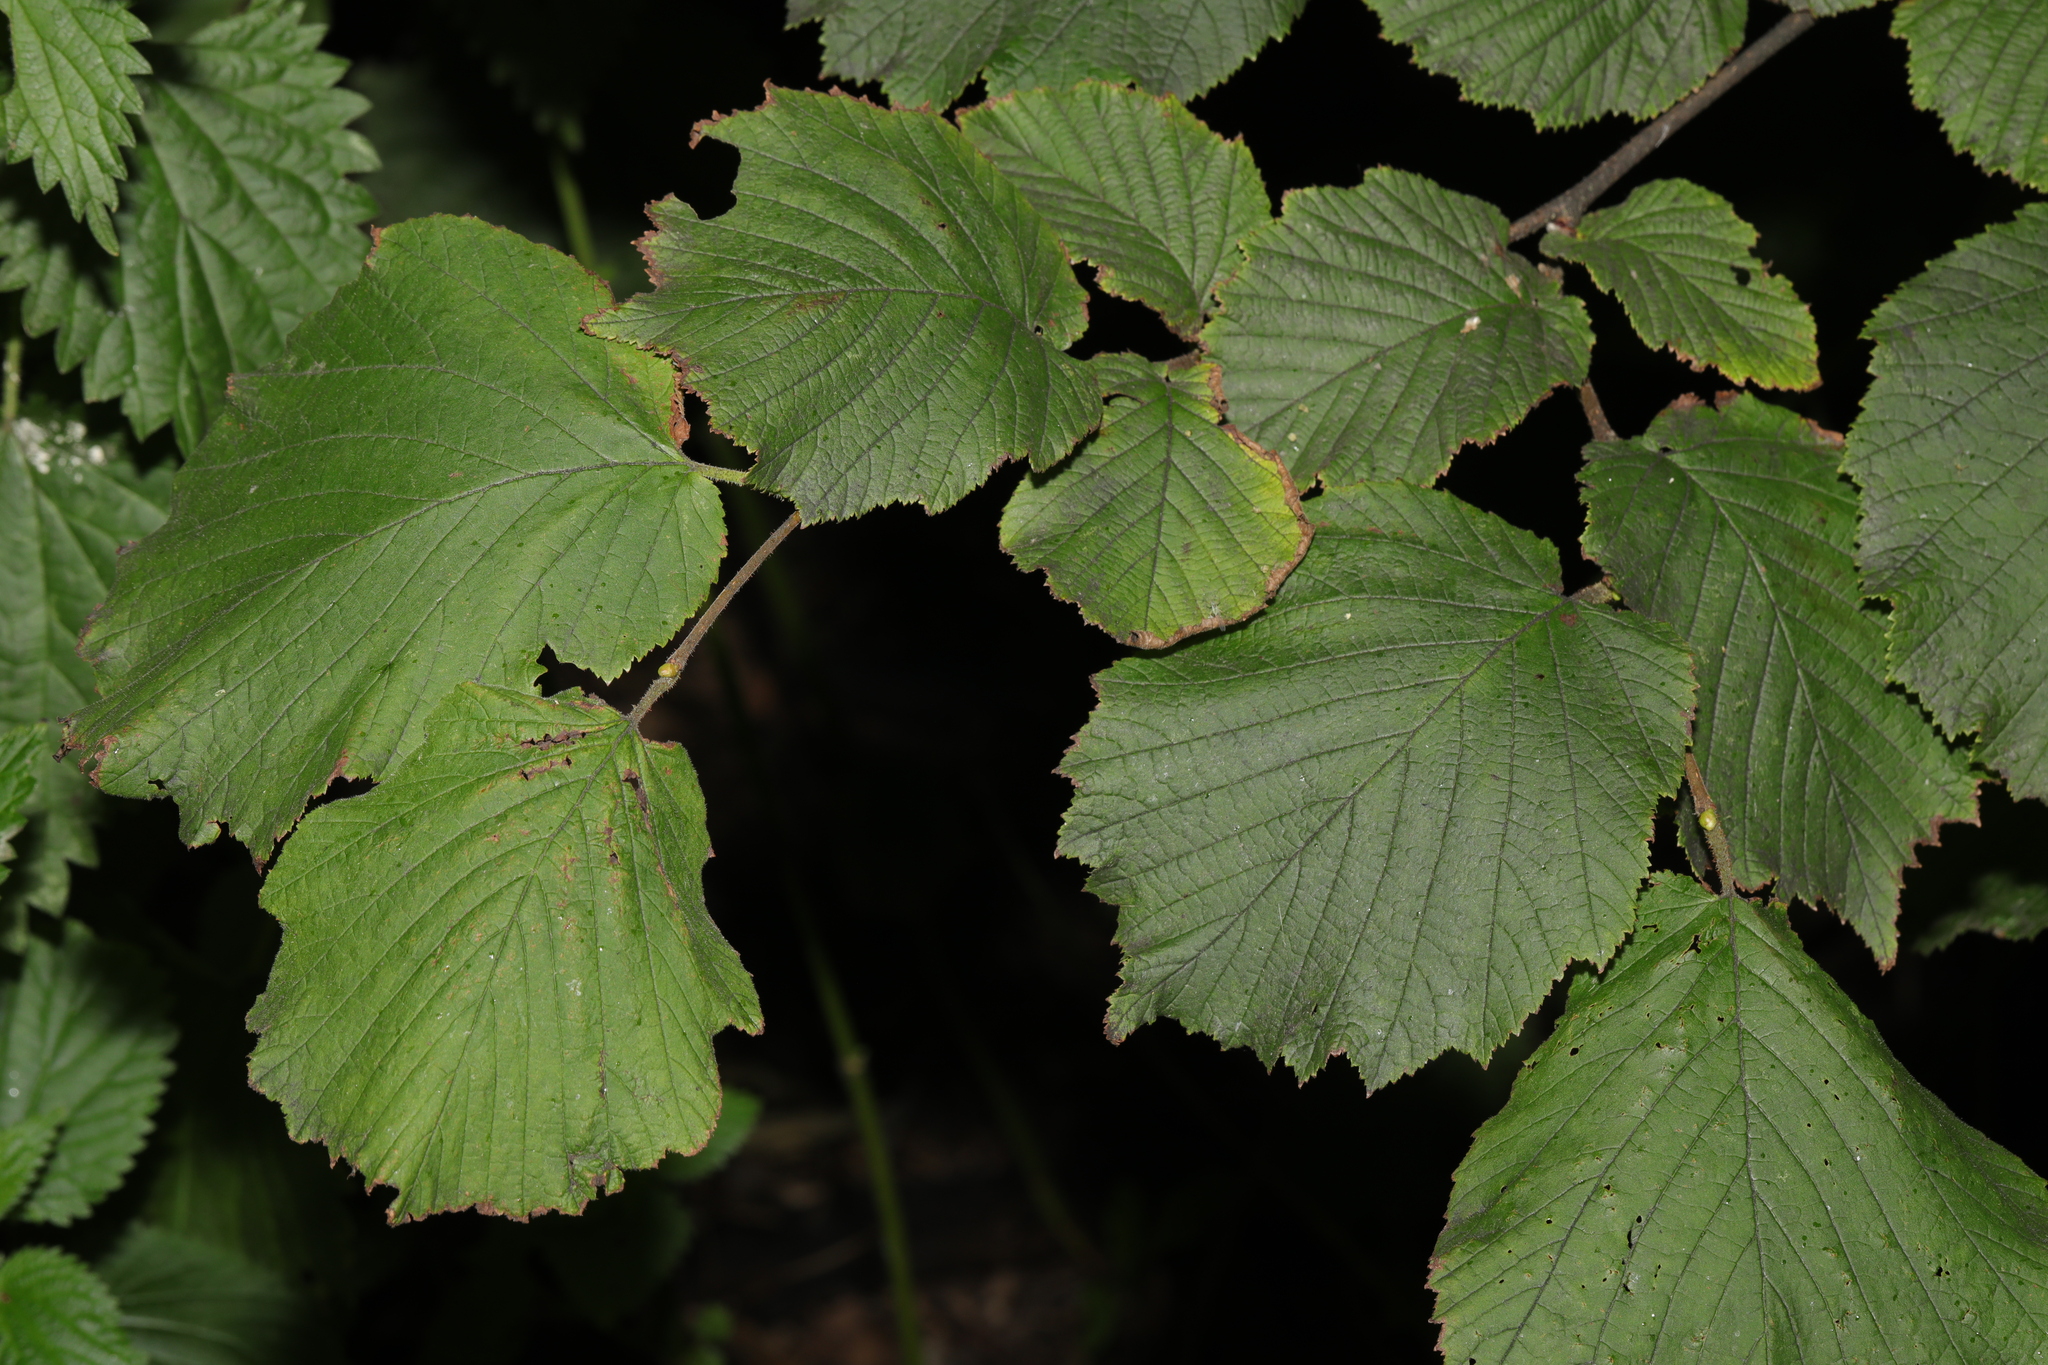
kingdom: Plantae
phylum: Tracheophyta
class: Magnoliopsida
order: Fagales
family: Betulaceae
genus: Corylus
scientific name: Corylus avellana
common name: European hazel
